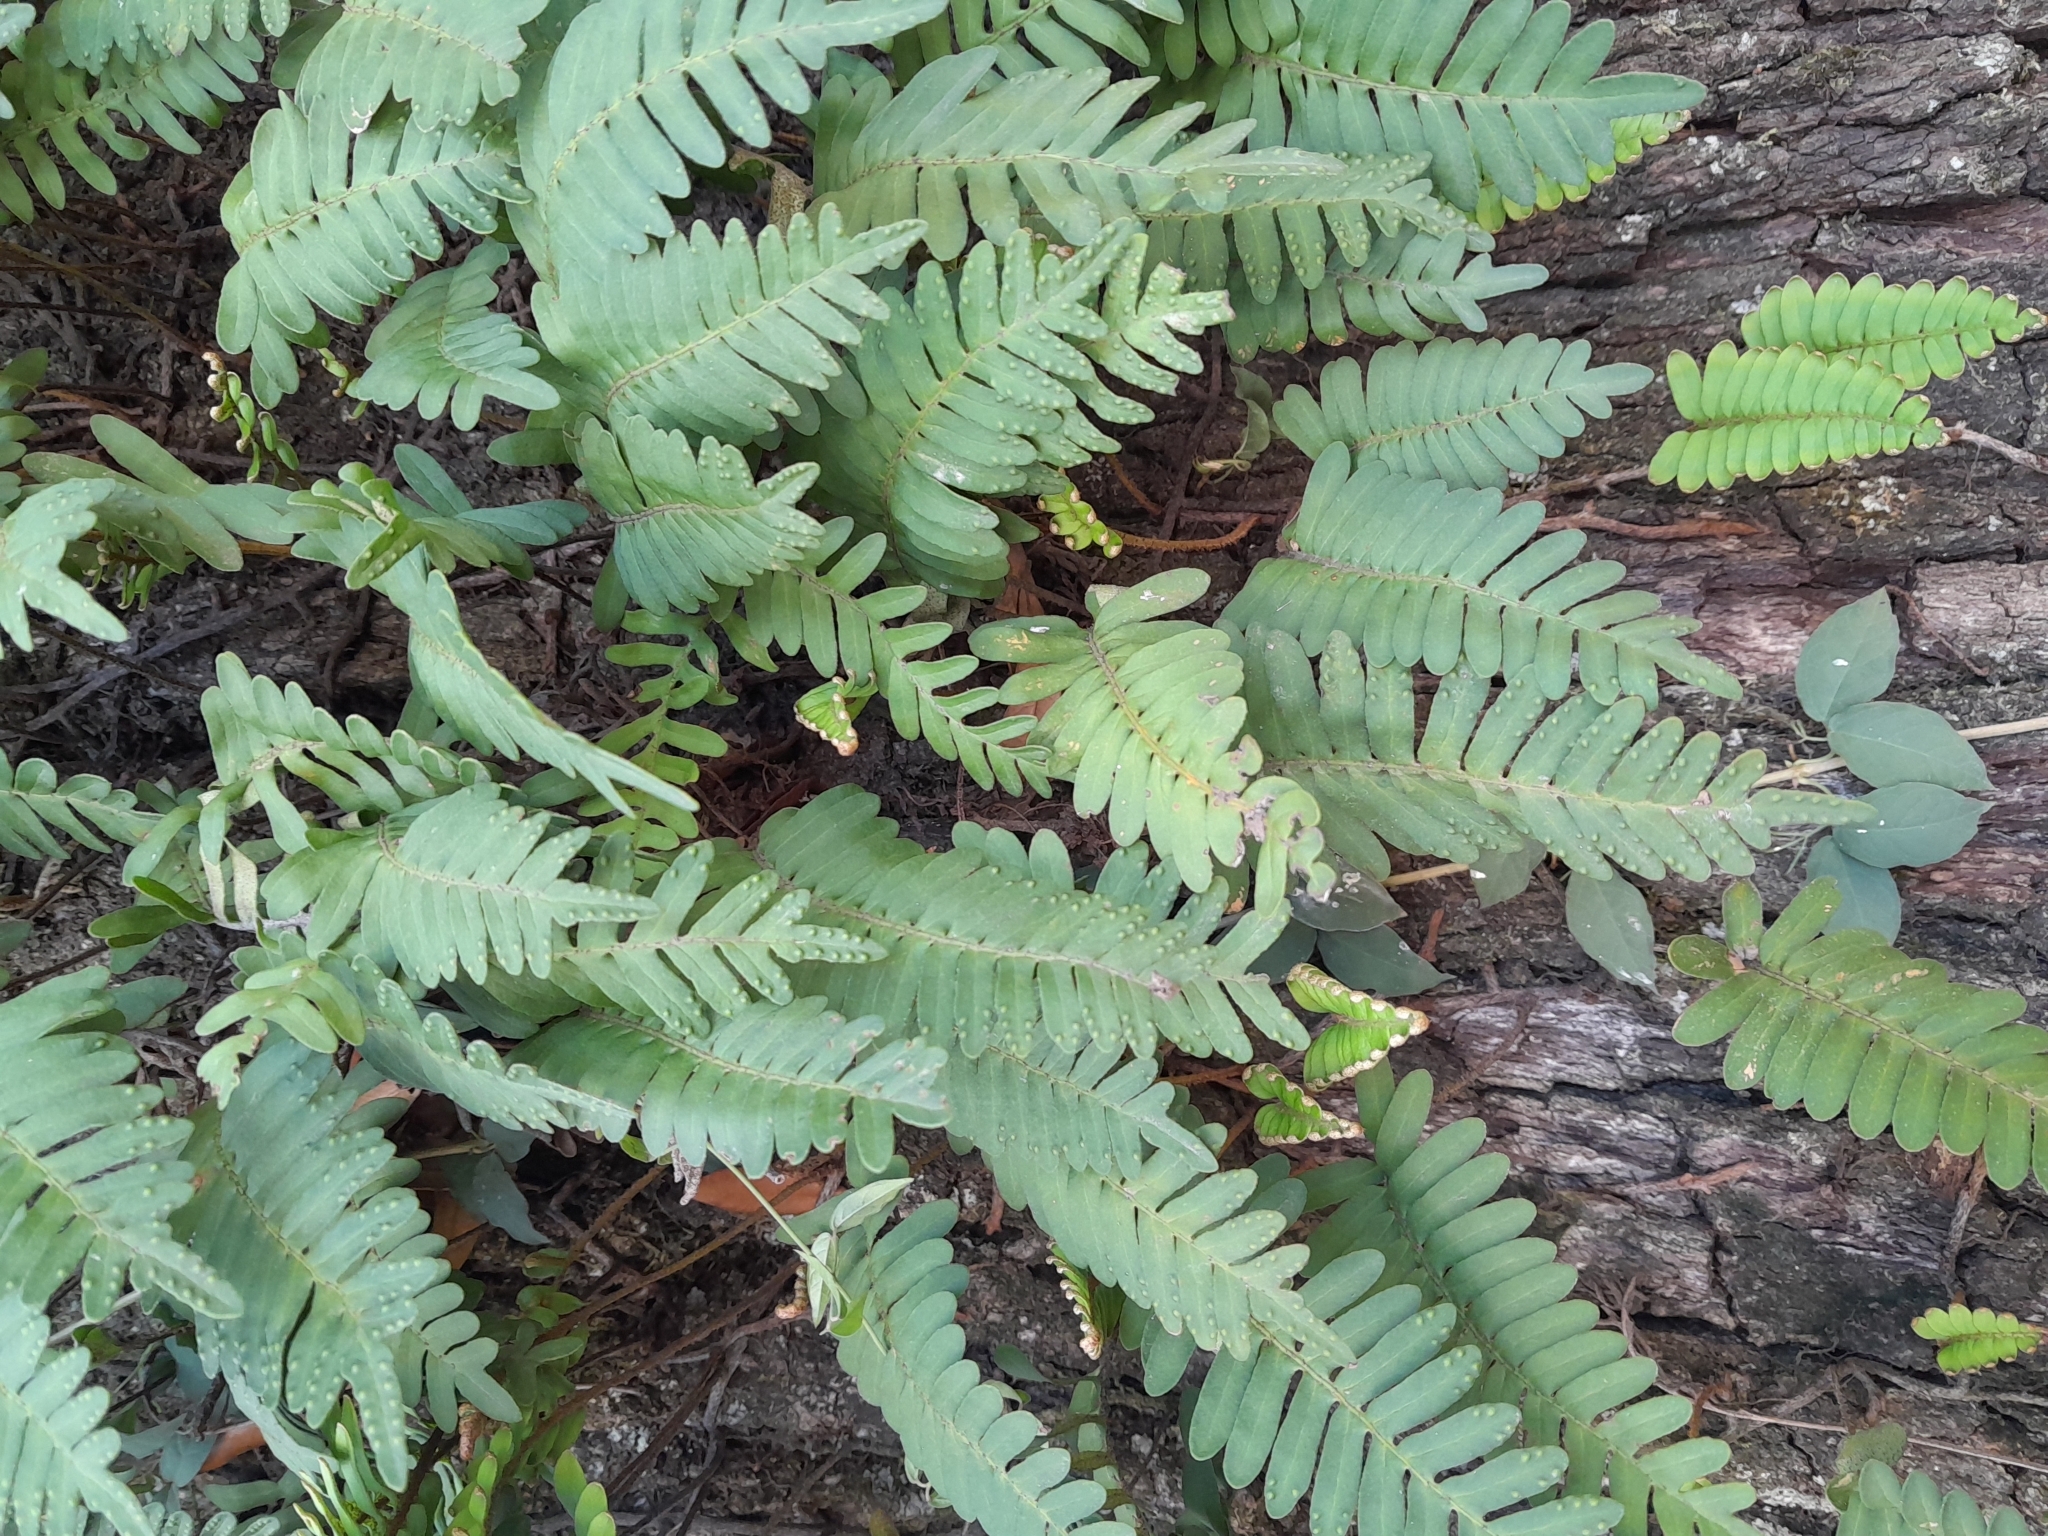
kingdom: Plantae
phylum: Tracheophyta
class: Polypodiopsida
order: Polypodiales
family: Polypodiaceae
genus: Pleopeltis
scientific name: Pleopeltis michauxiana
